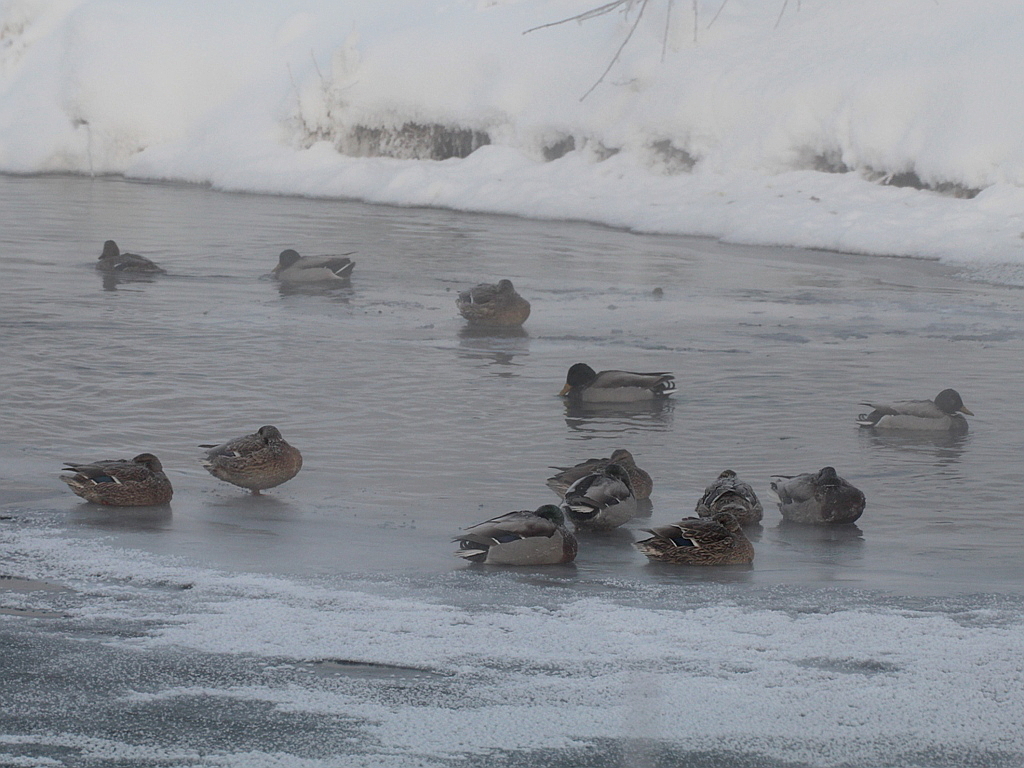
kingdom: Animalia
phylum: Chordata
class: Aves
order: Anseriformes
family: Anatidae
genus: Anas
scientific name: Anas platyrhynchos
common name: Mallard
